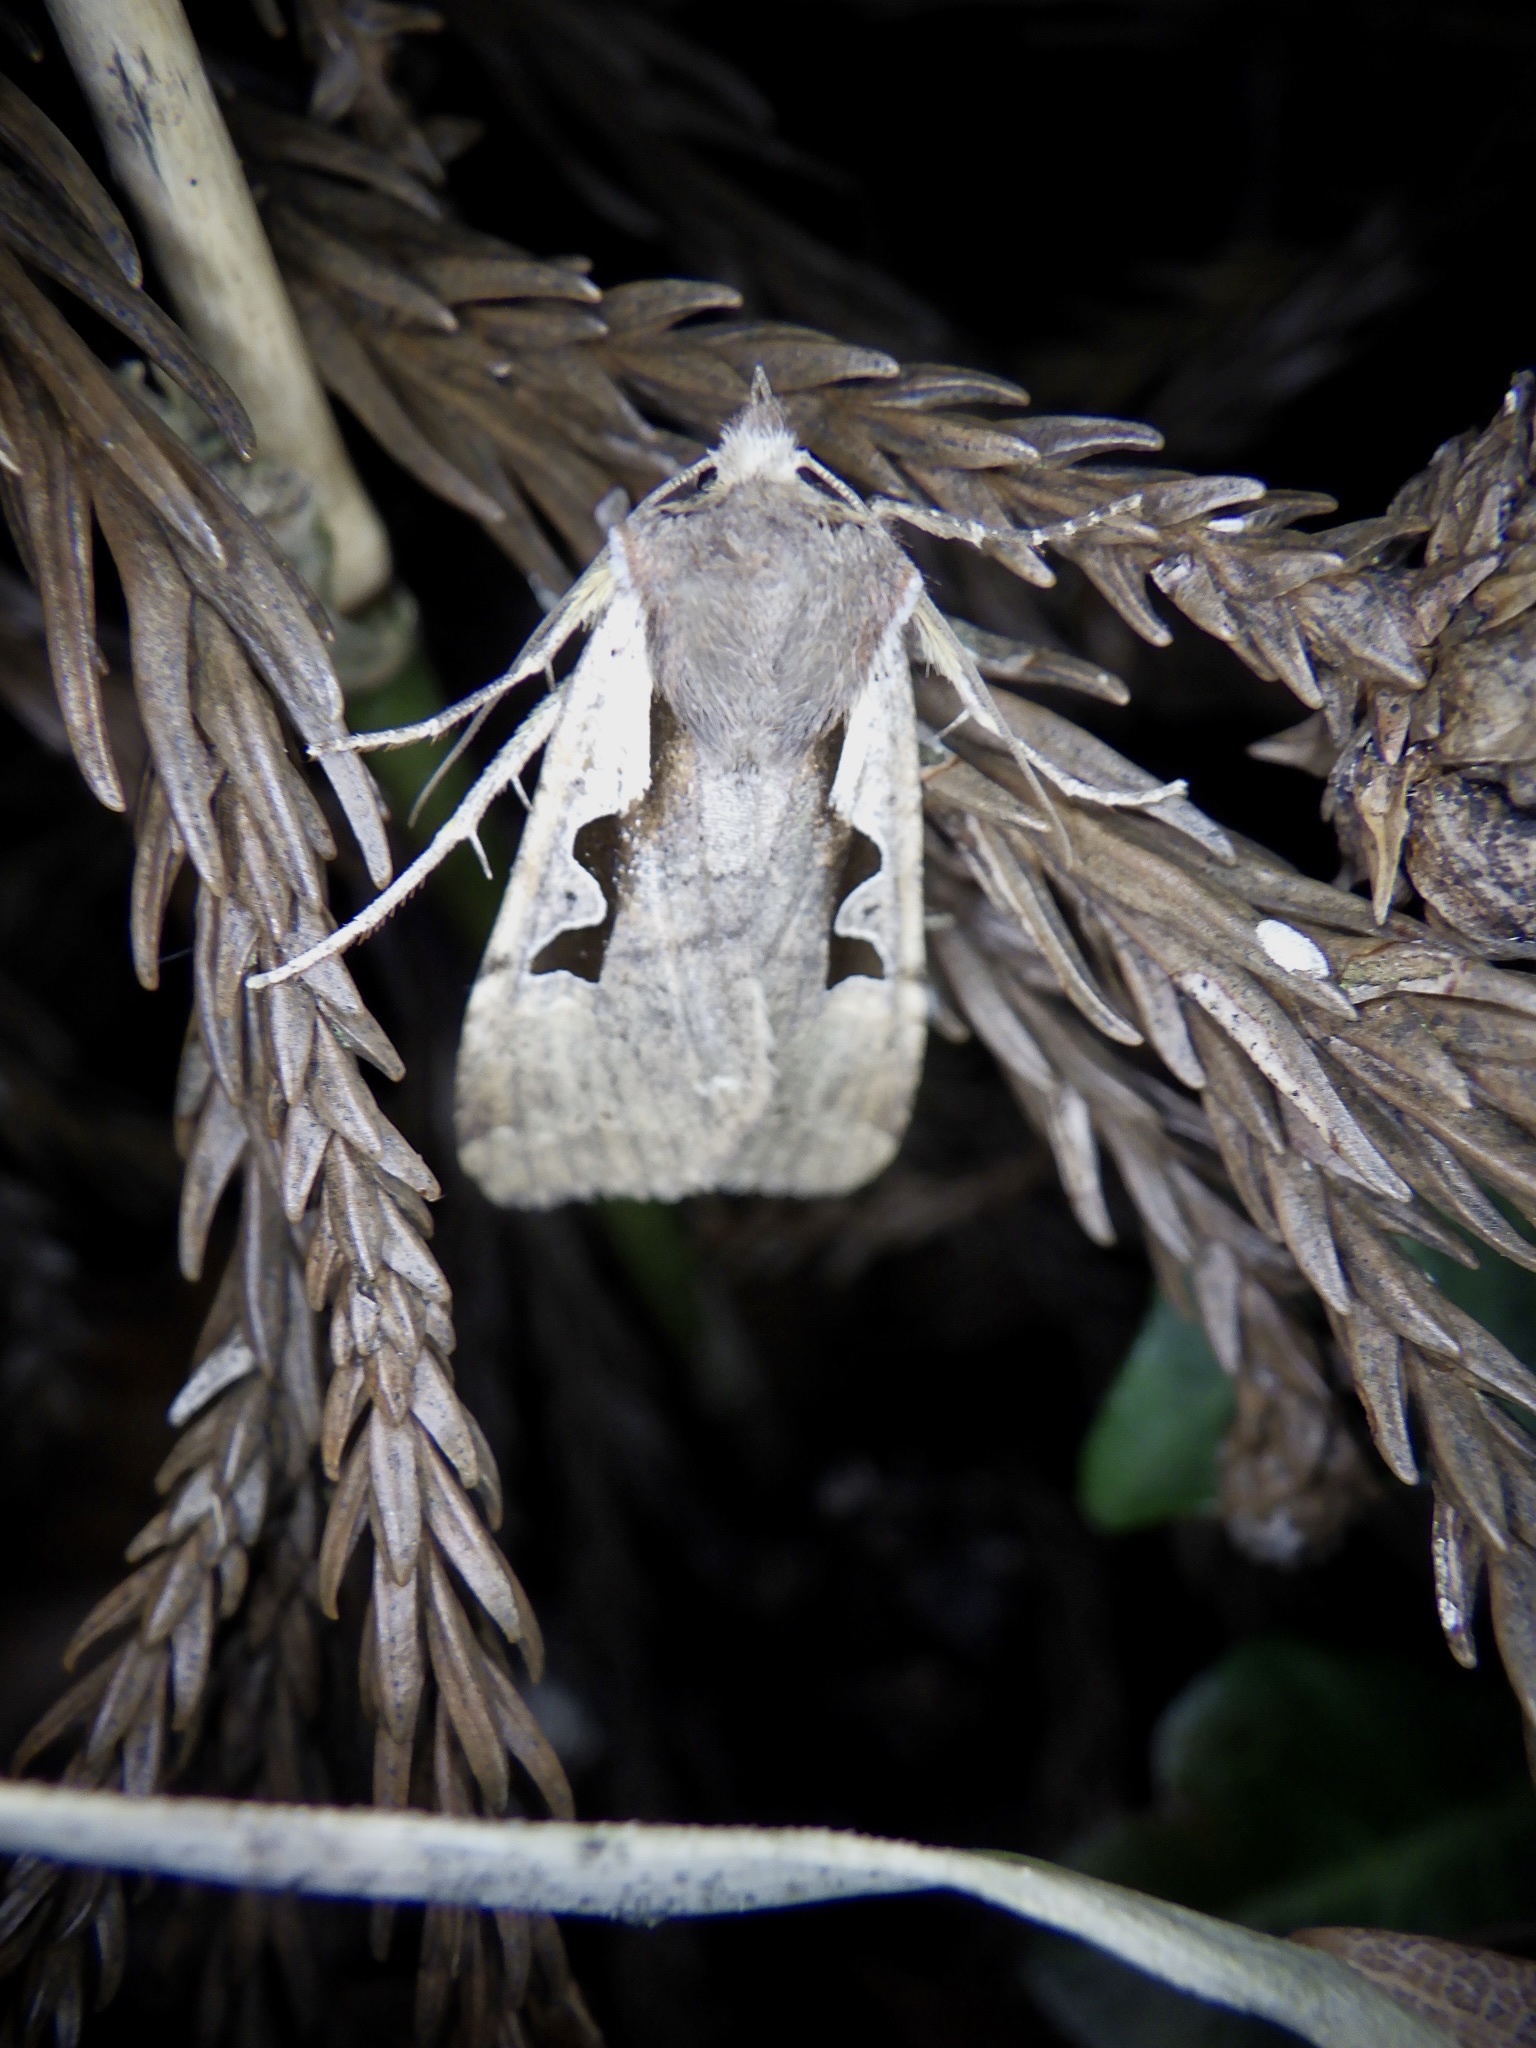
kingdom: Animalia
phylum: Arthropoda
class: Insecta
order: Lepidoptera
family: Noctuidae
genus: Sugitania
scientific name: Sugitania lepida
